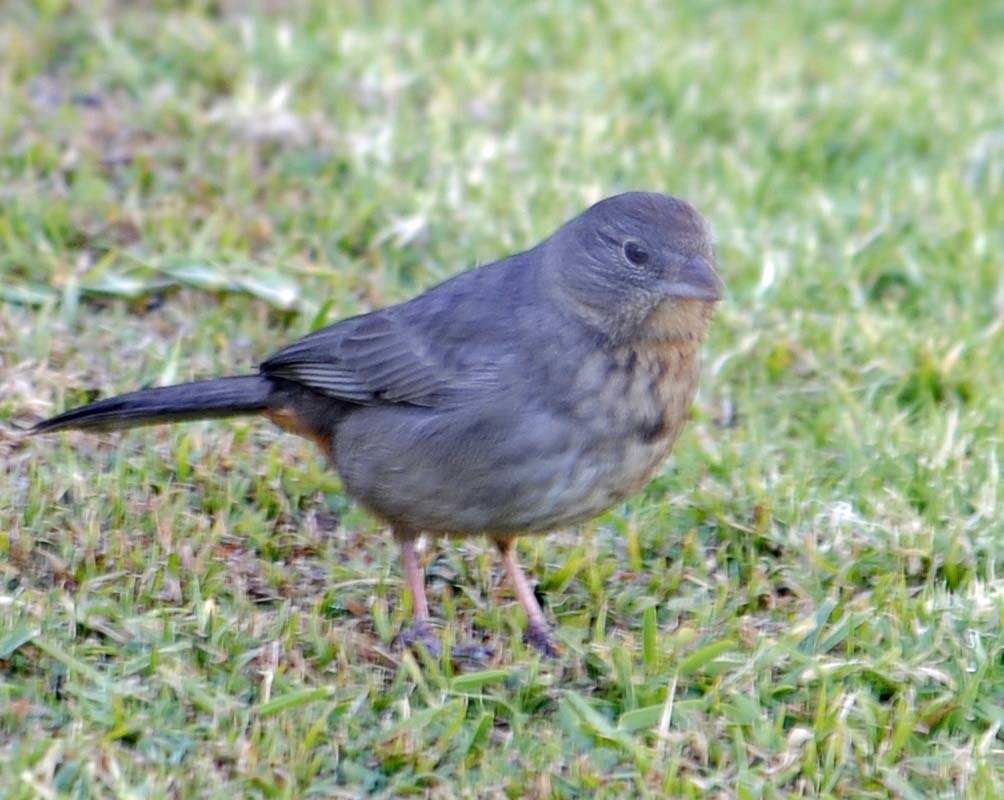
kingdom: Animalia
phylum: Chordata
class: Aves
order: Passeriformes
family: Passerellidae
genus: Melozone
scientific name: Melozone fusca
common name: Canyon towhee
